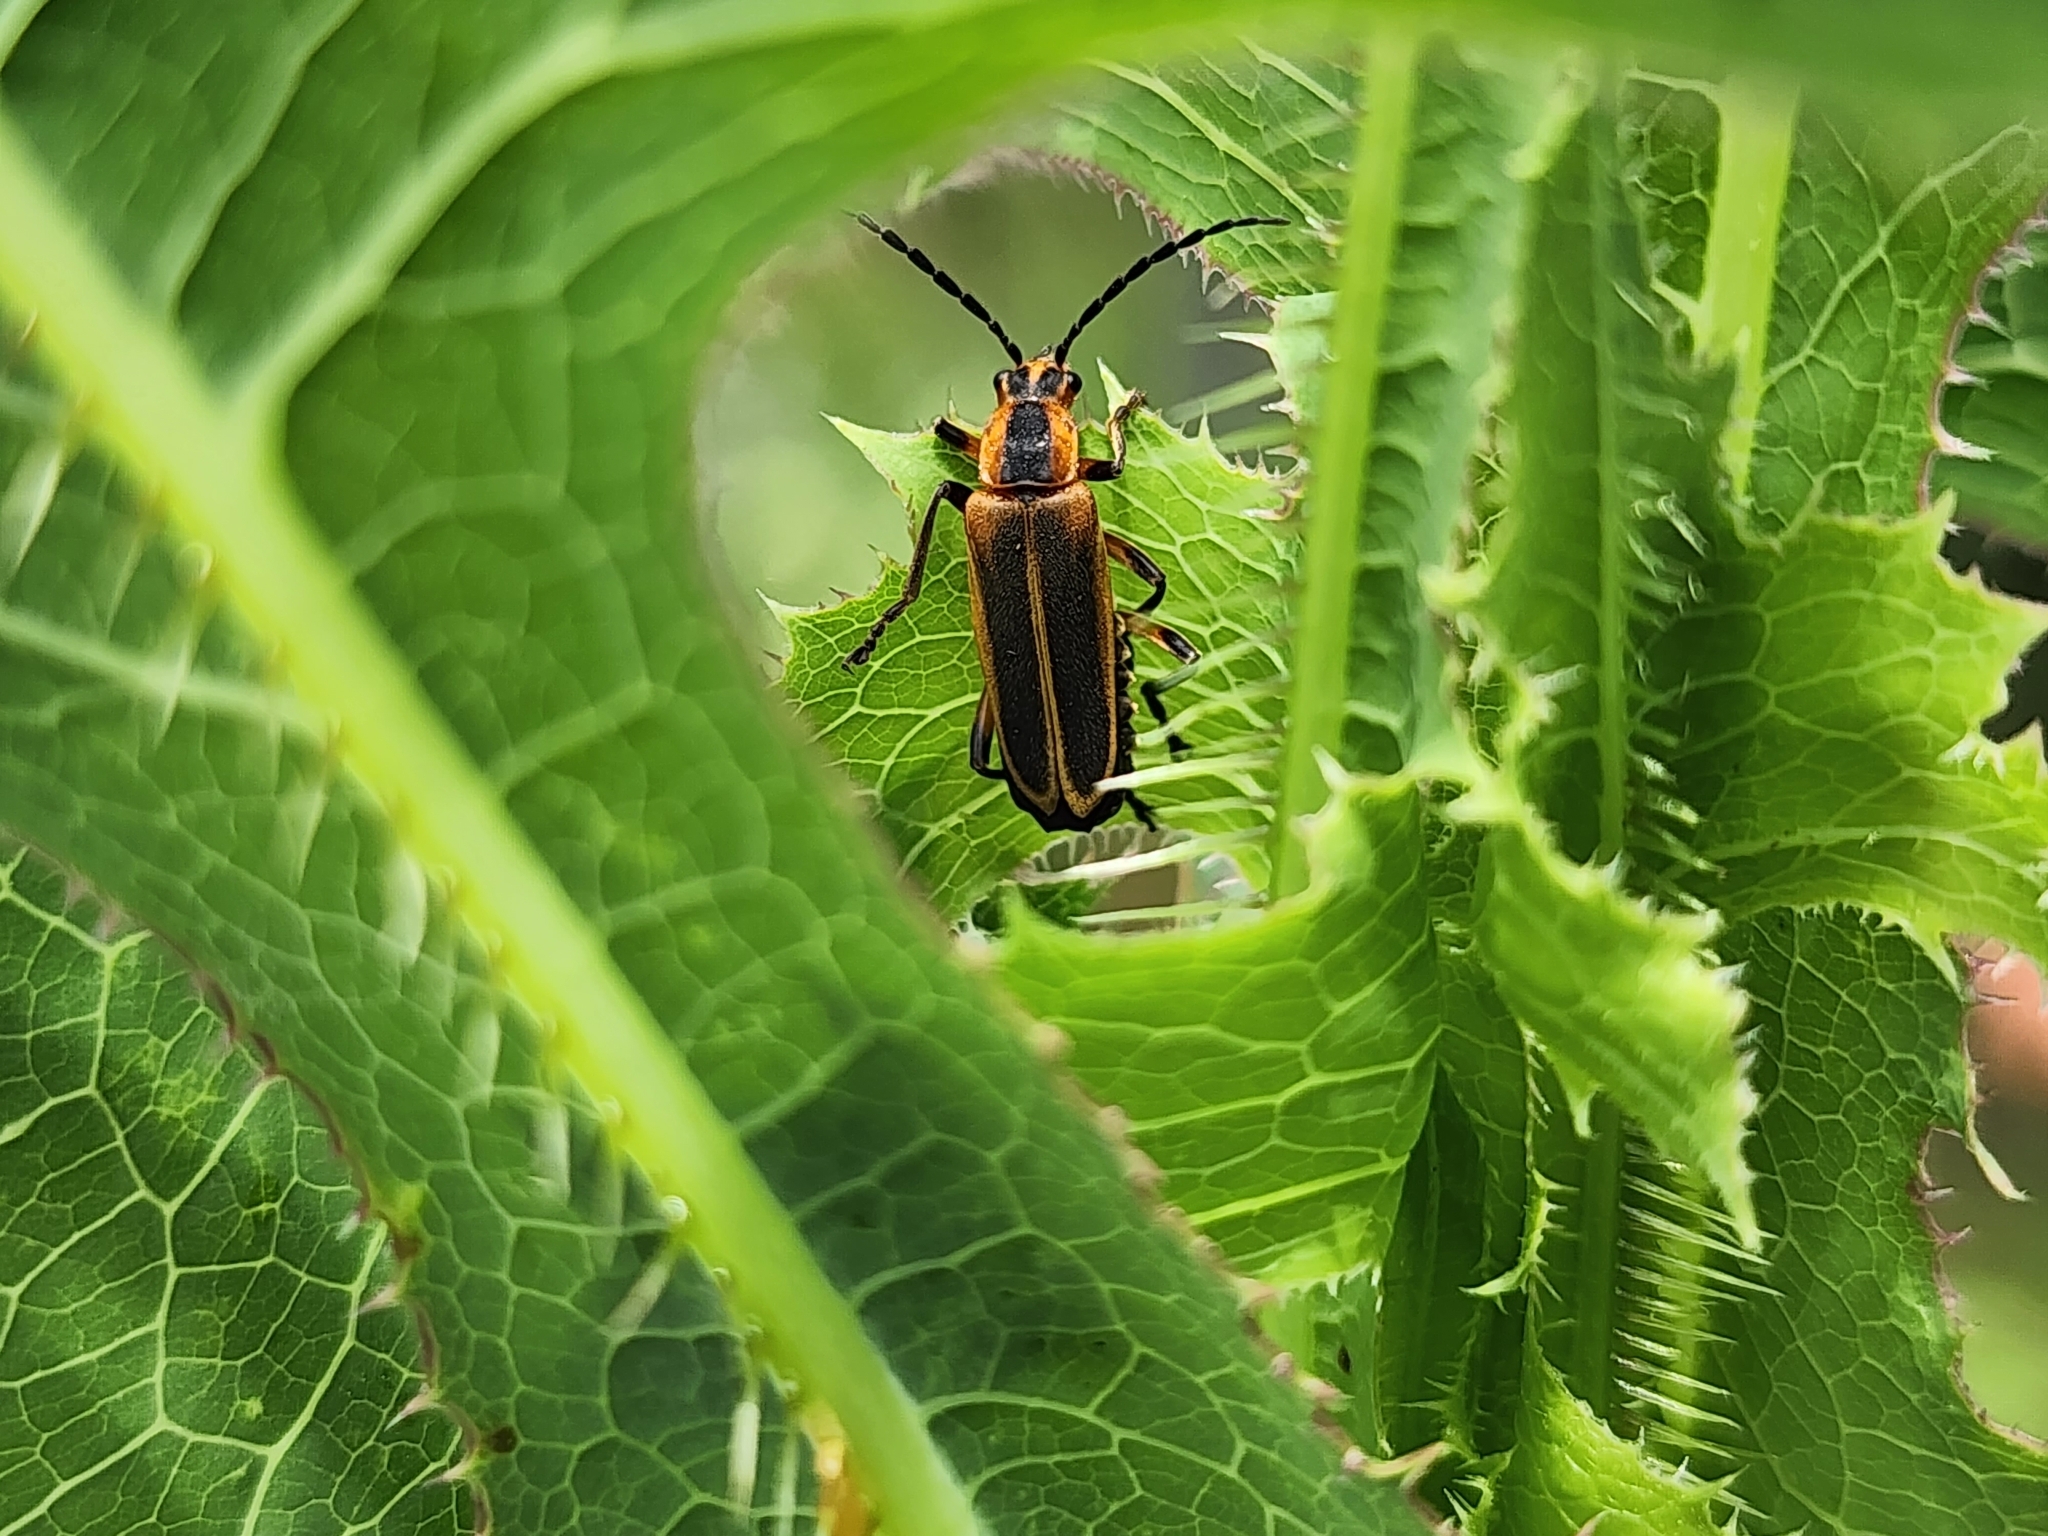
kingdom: Animalia
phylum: Arthropoda
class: Insecta
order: Coleoptera
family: Cantharidae
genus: Chauliognathus
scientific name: Chauliognathus marginatus
